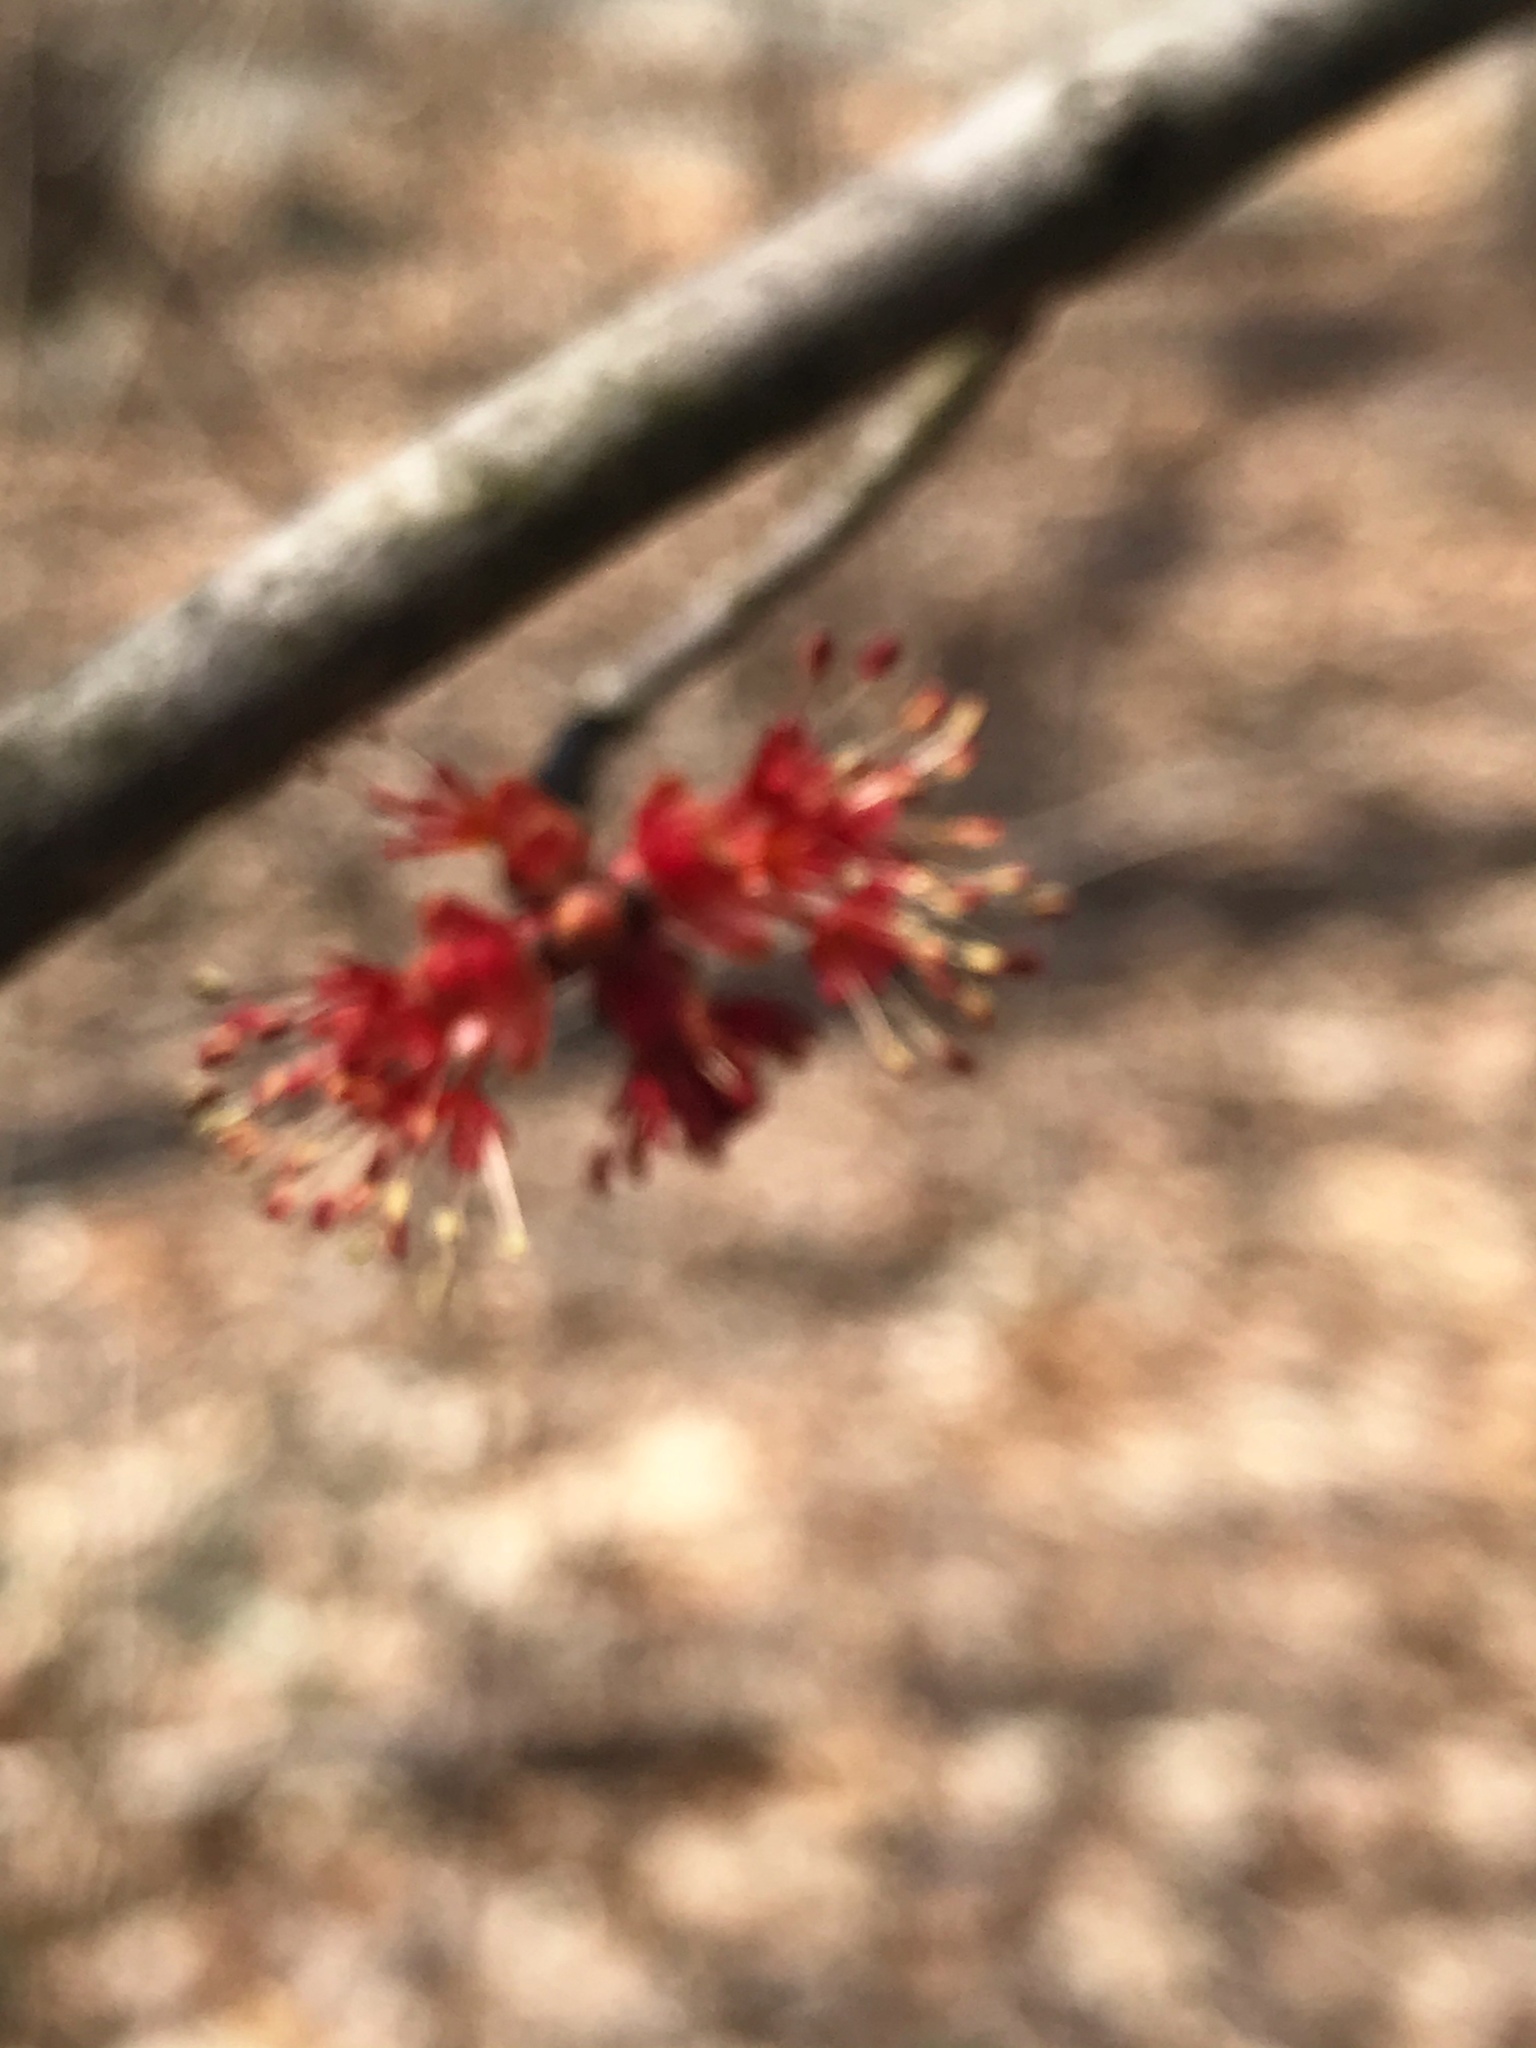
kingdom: Plantae
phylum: Tracheophyta
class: Magnoliopsida
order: Sapindales
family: Sapindaceae
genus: Acer
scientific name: Acer rubrum
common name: Red maple
